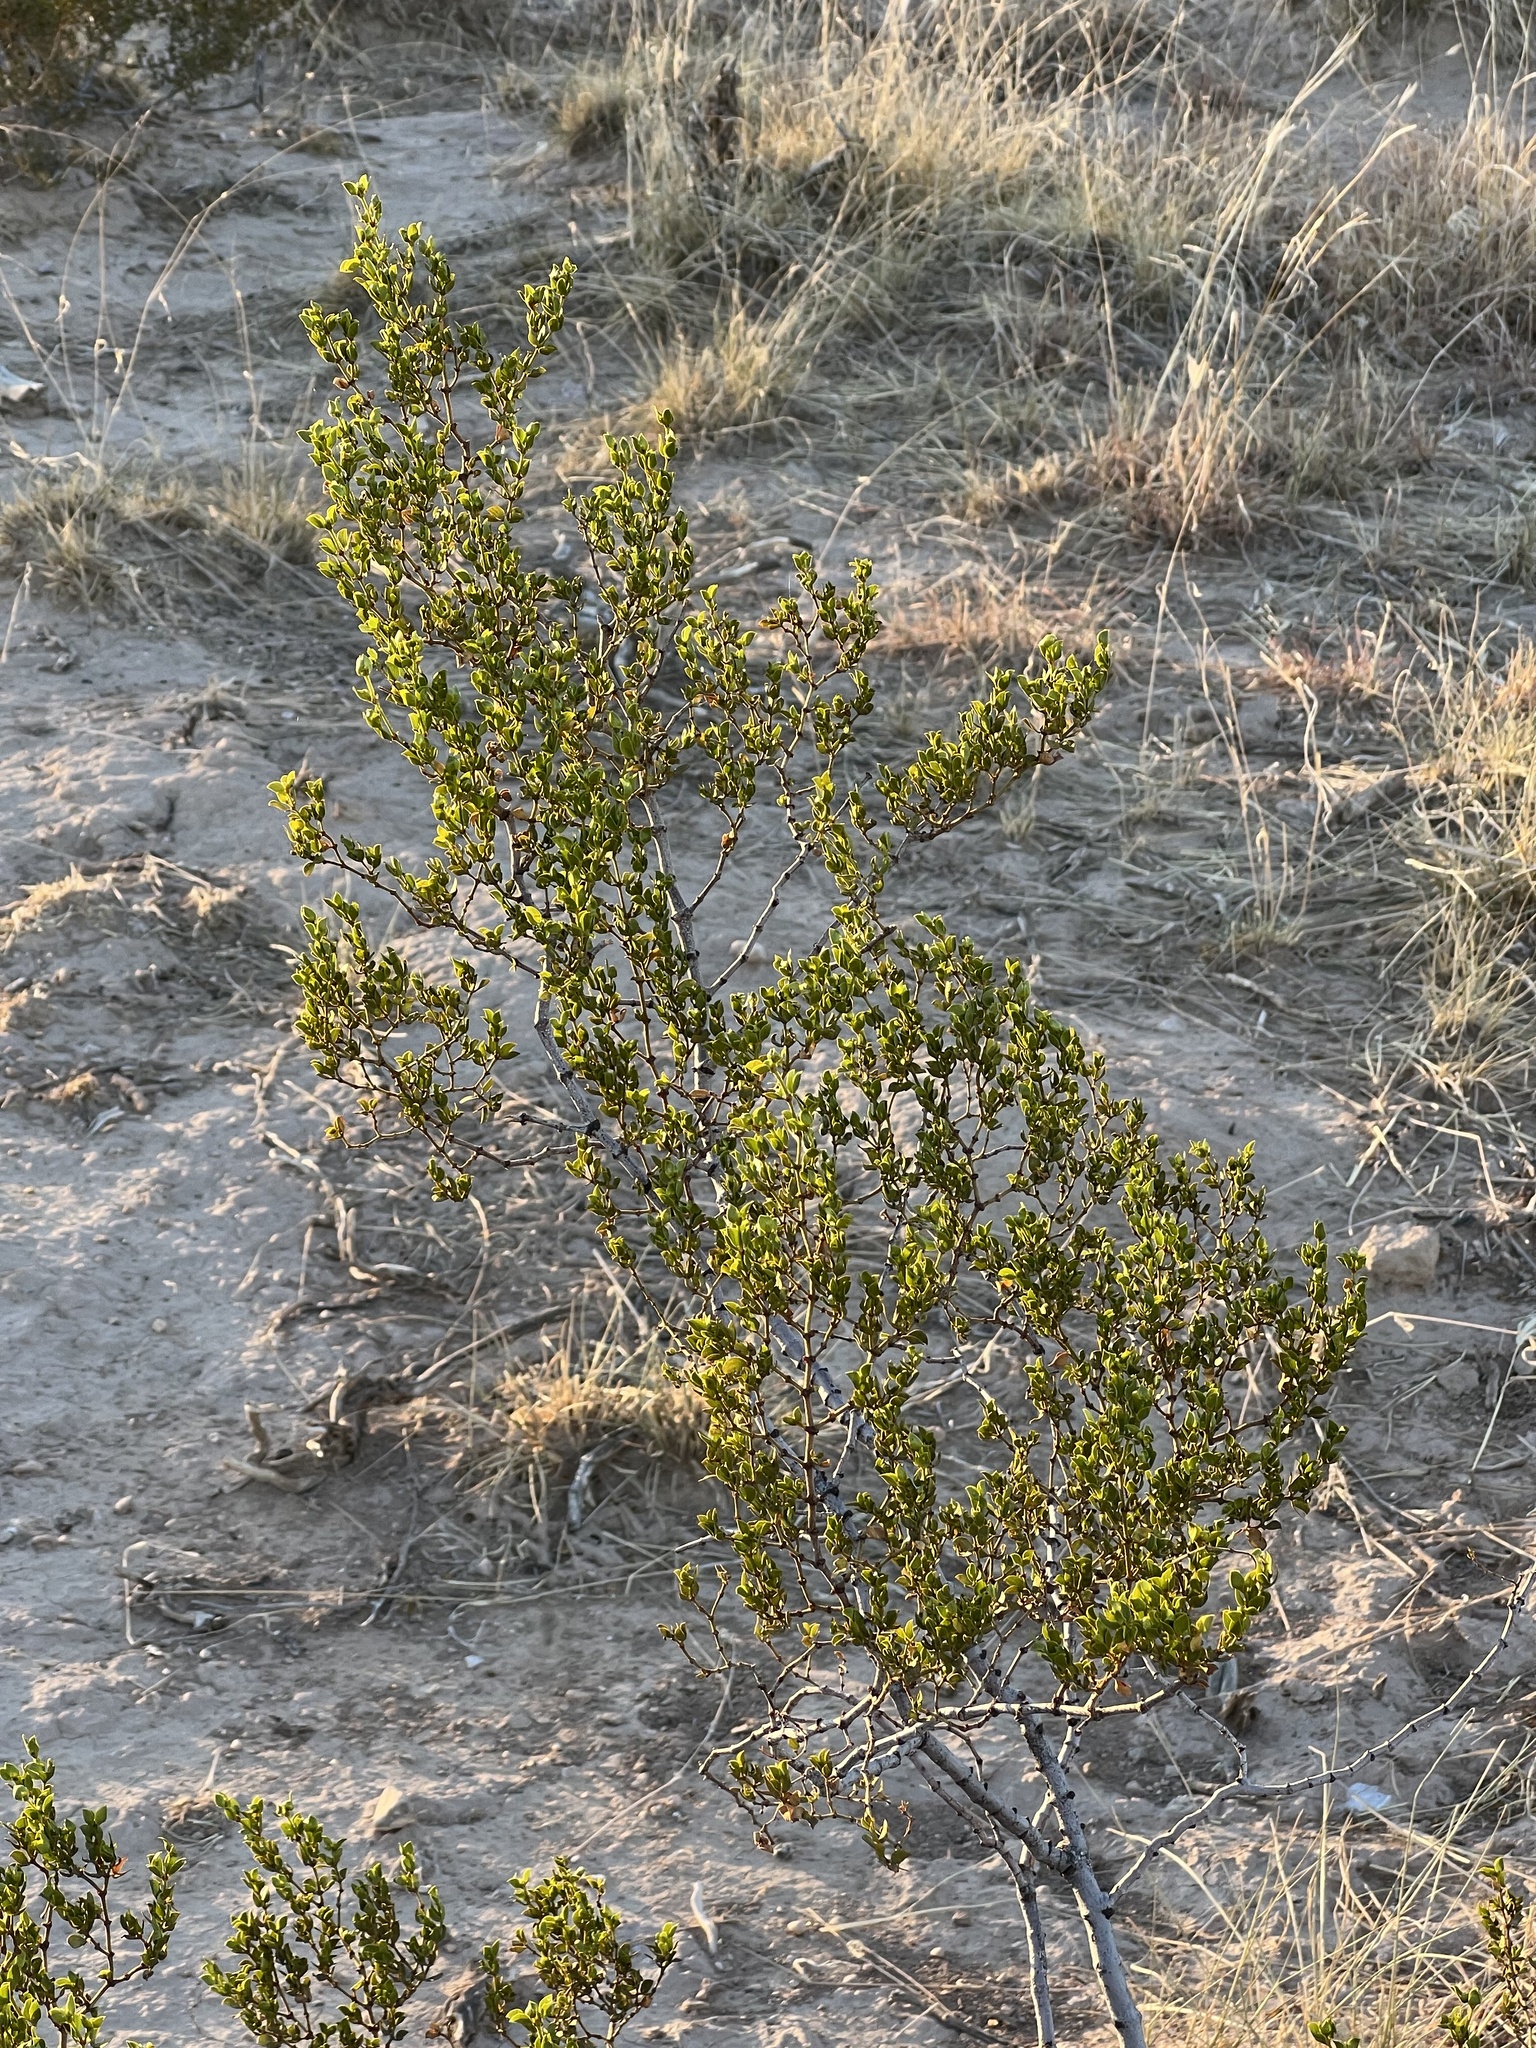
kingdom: Plantae
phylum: Tracheophyta
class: Magnoliopsida
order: Zygophyllales
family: Zygophyllaceae
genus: Larrea
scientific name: Larrea tridentata
